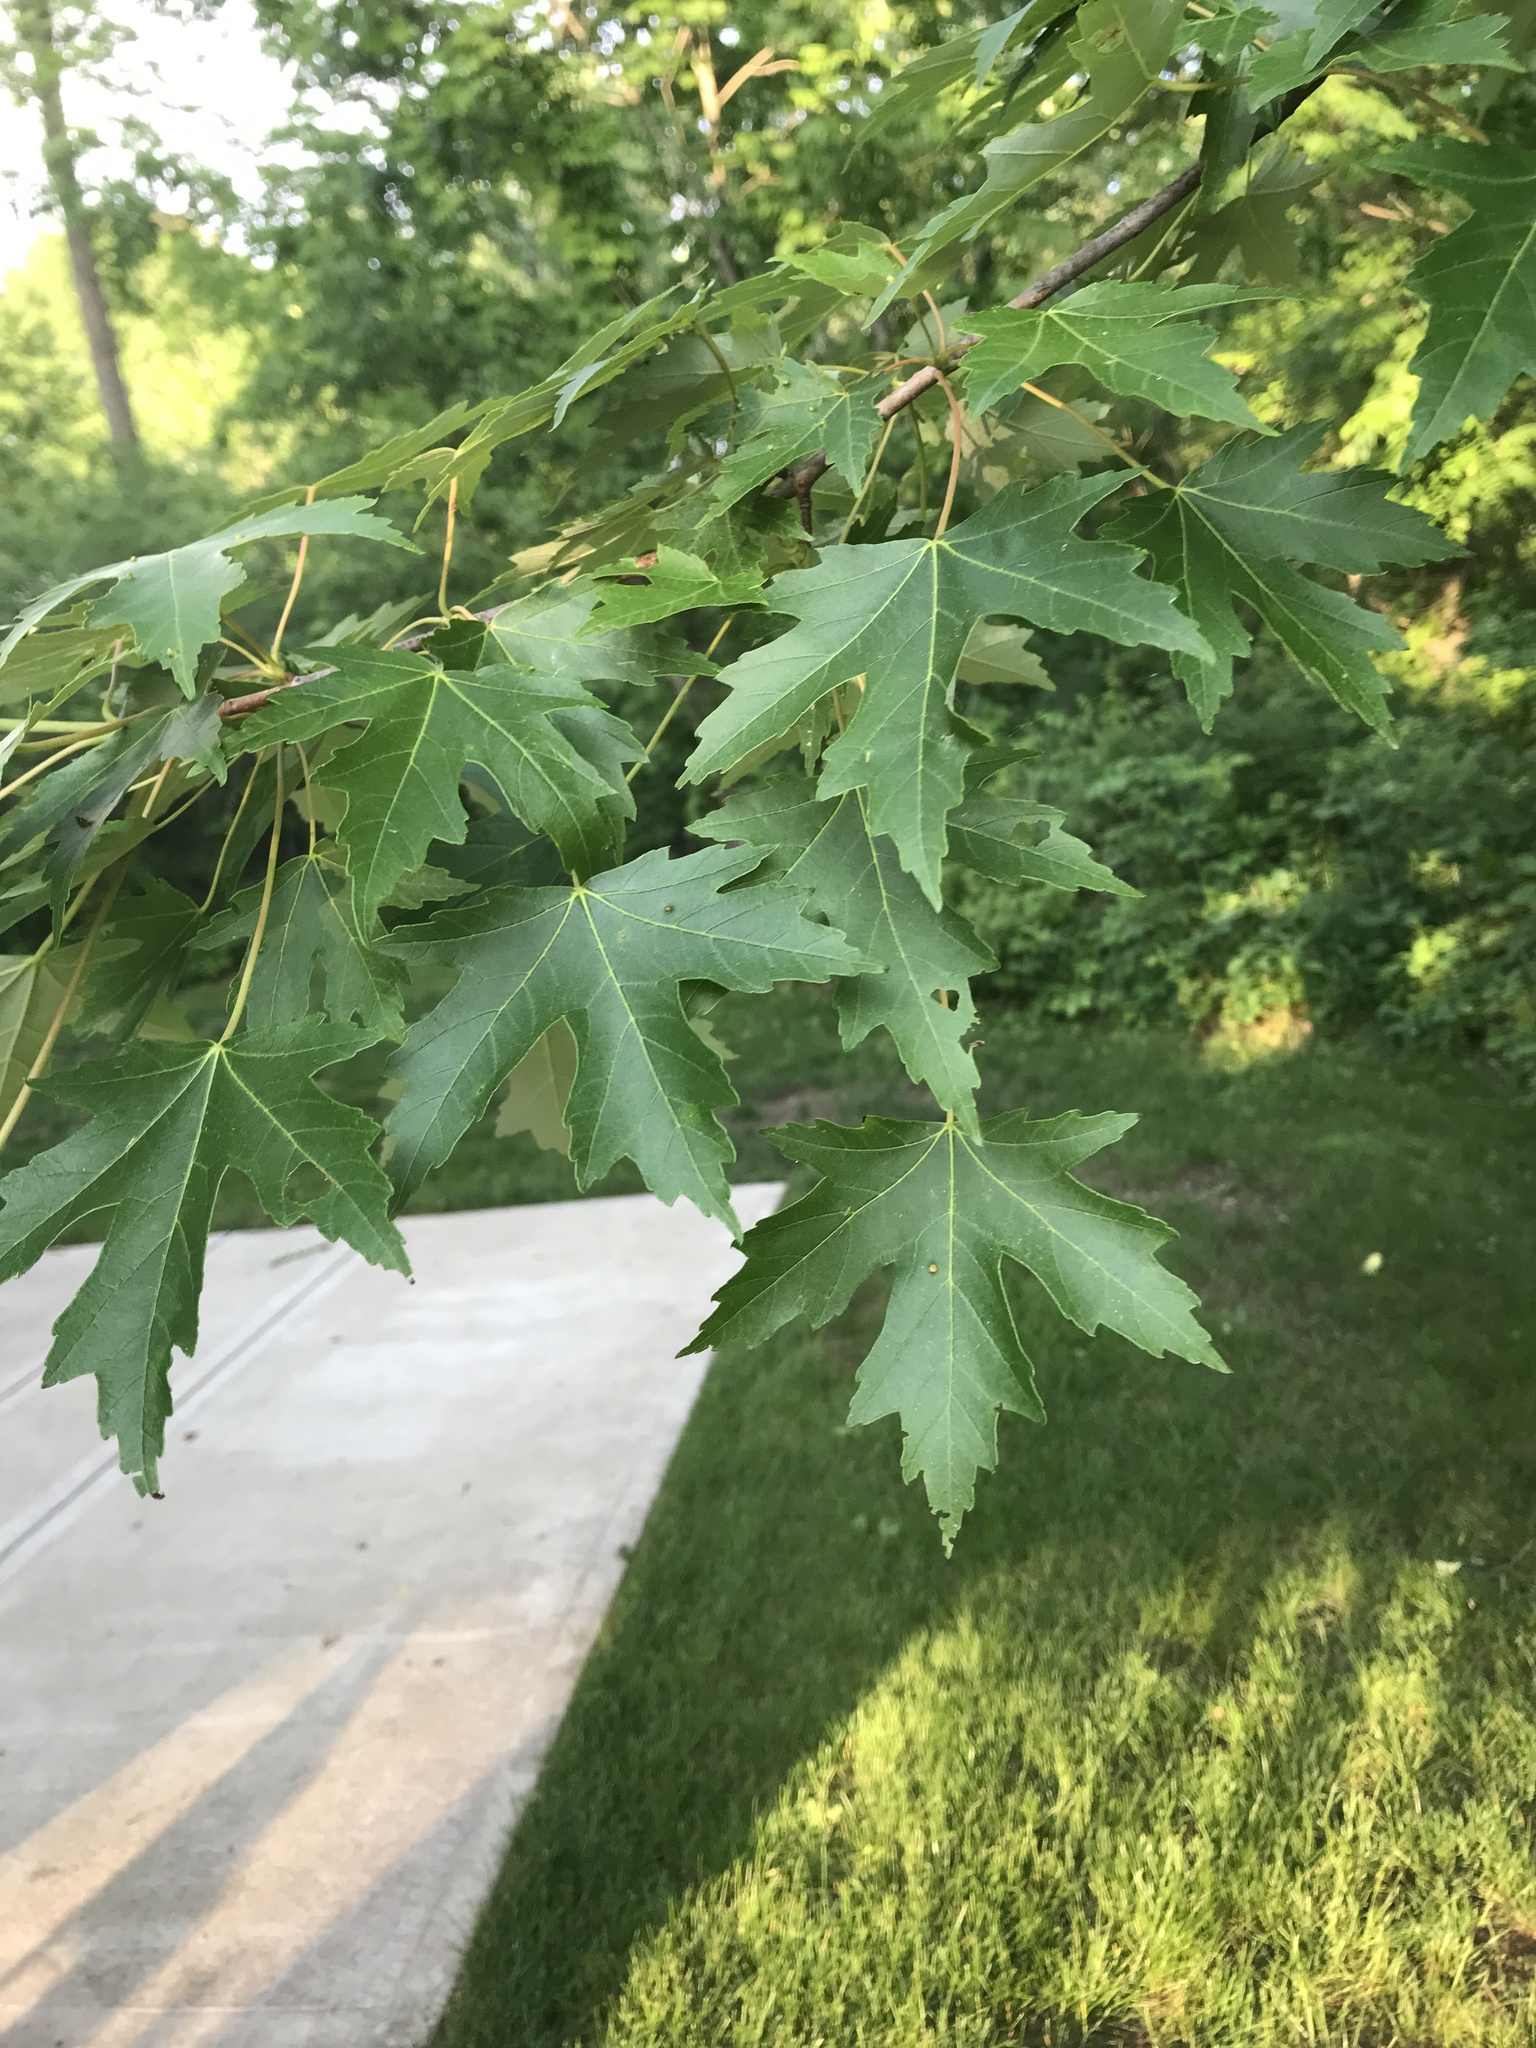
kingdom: Plantae
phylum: Tracheophyta
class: Magnoliopsida
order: Sapindales
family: Sapindaceae
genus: Acer
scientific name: Acer saccharinum
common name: Silver maple
